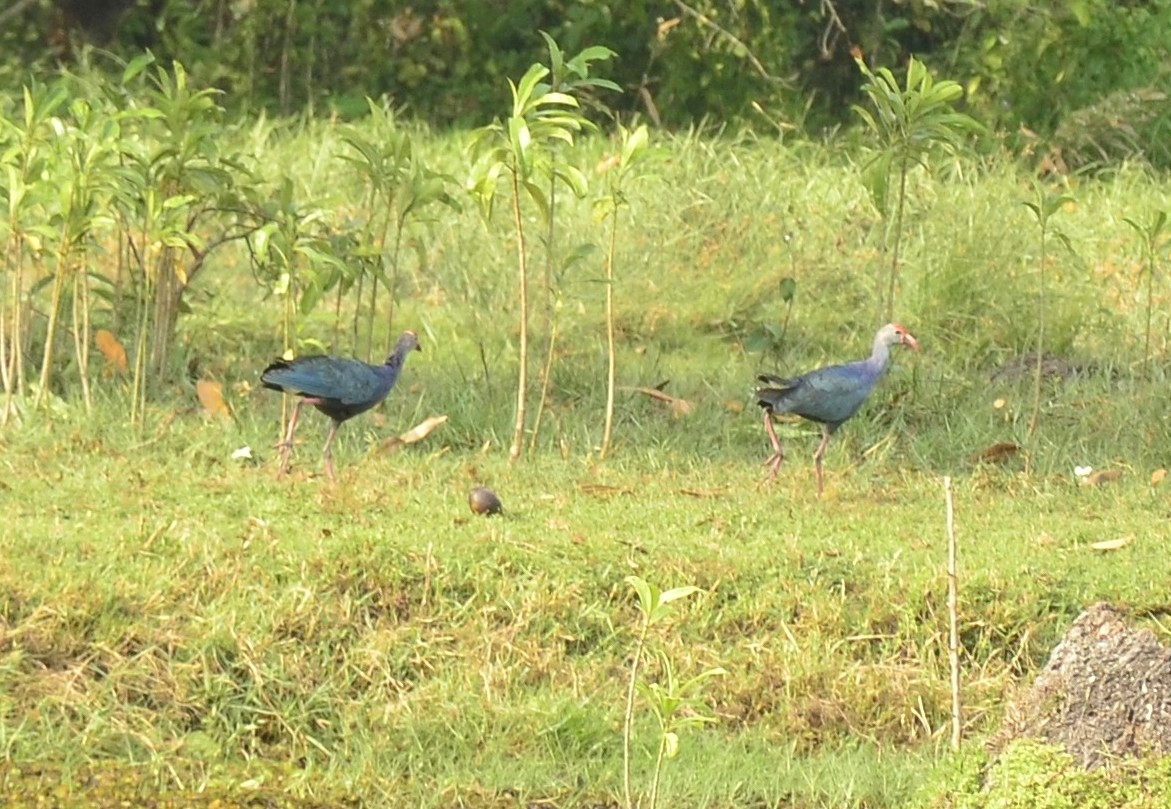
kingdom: Animalia
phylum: Chordata
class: Aves
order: Gruiformes
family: Rallidae
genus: Porphyrio
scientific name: Porphyrio porphyrio
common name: Purple swamphen
